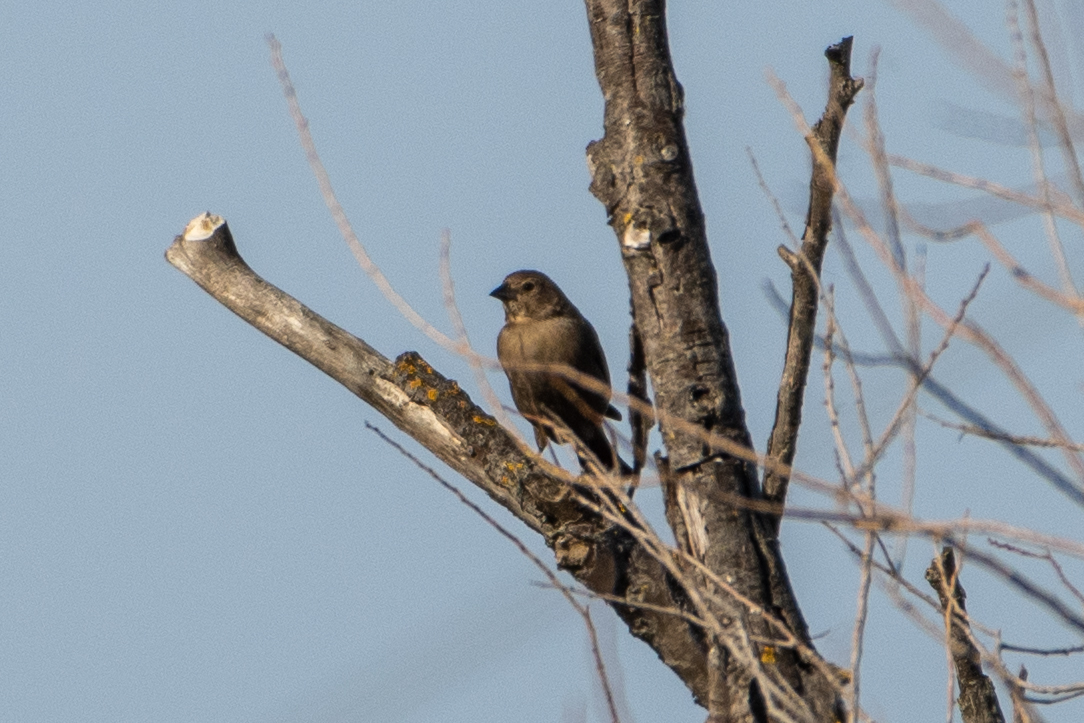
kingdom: Animalia
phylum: Chordata
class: Aves
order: Passeriformes
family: Icteridae
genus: Molothrus
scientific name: Molothrus ater
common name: Brown-headed cowbird
